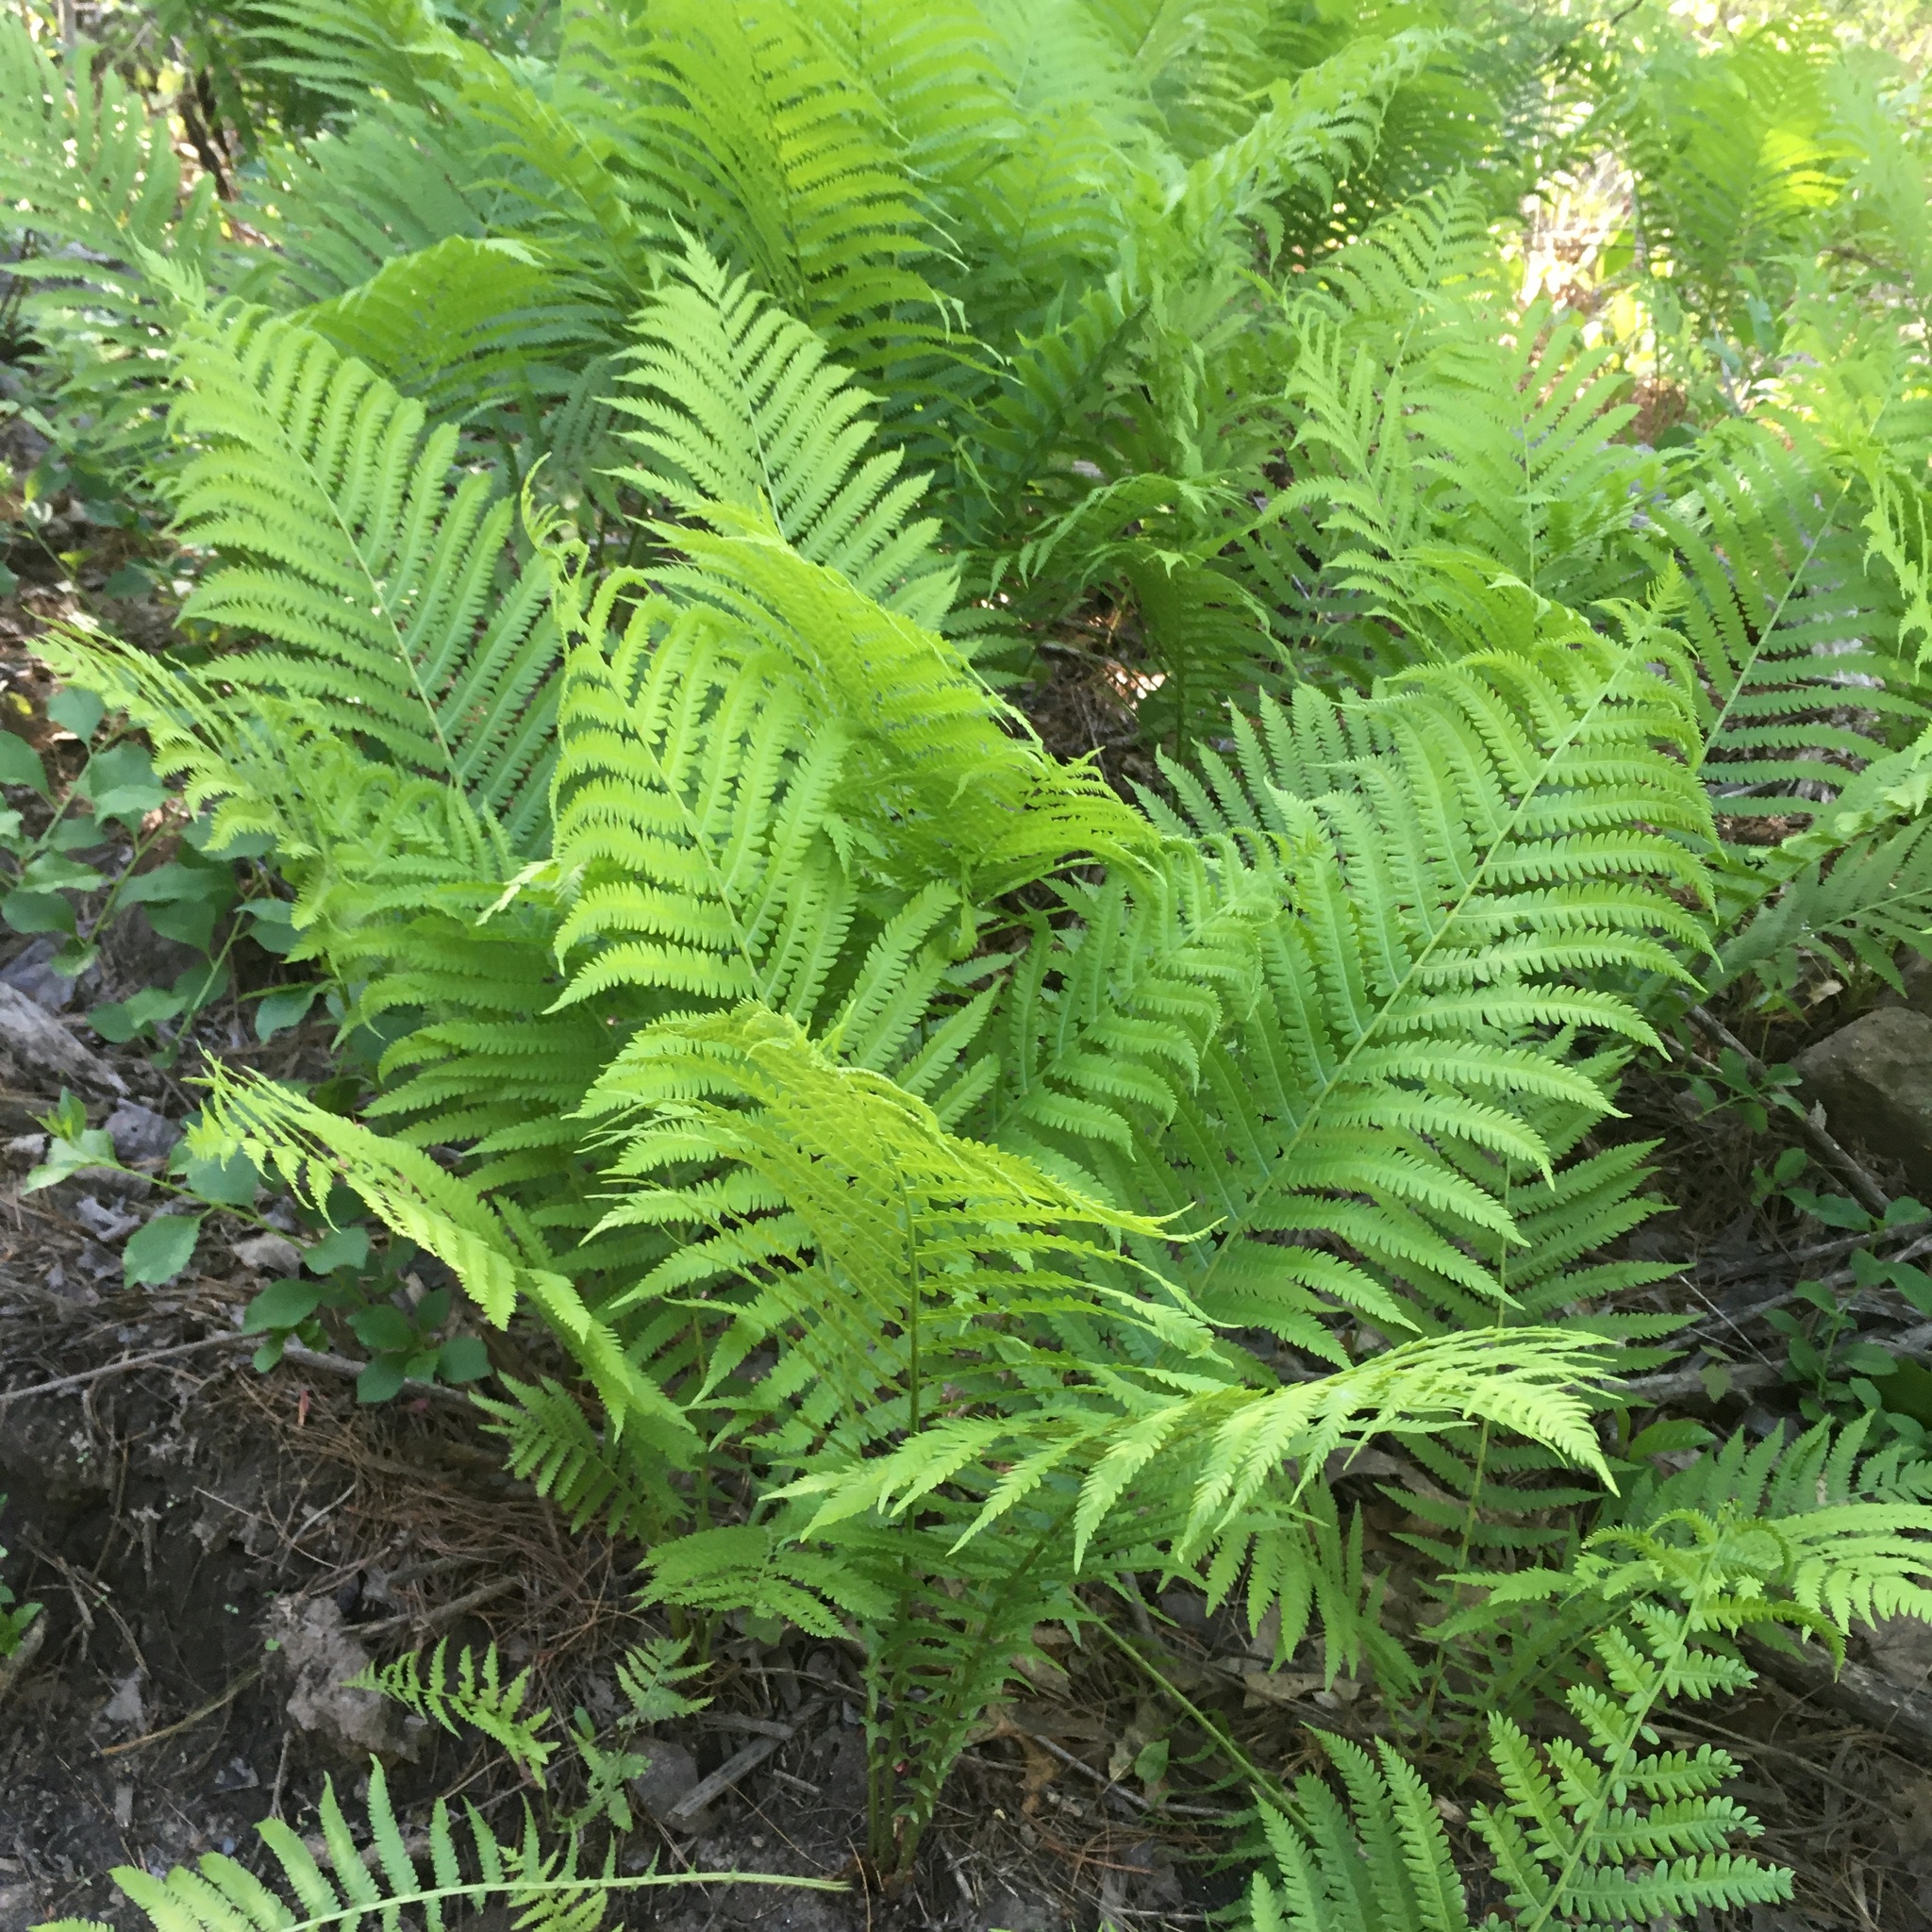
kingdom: Plantae
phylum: Tracheophyta
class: Polypodiopsida
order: Polypodiales
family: Onocleaceae
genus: Matteuccia
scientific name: Matteuccia struthiopteris
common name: Ostrich fern
